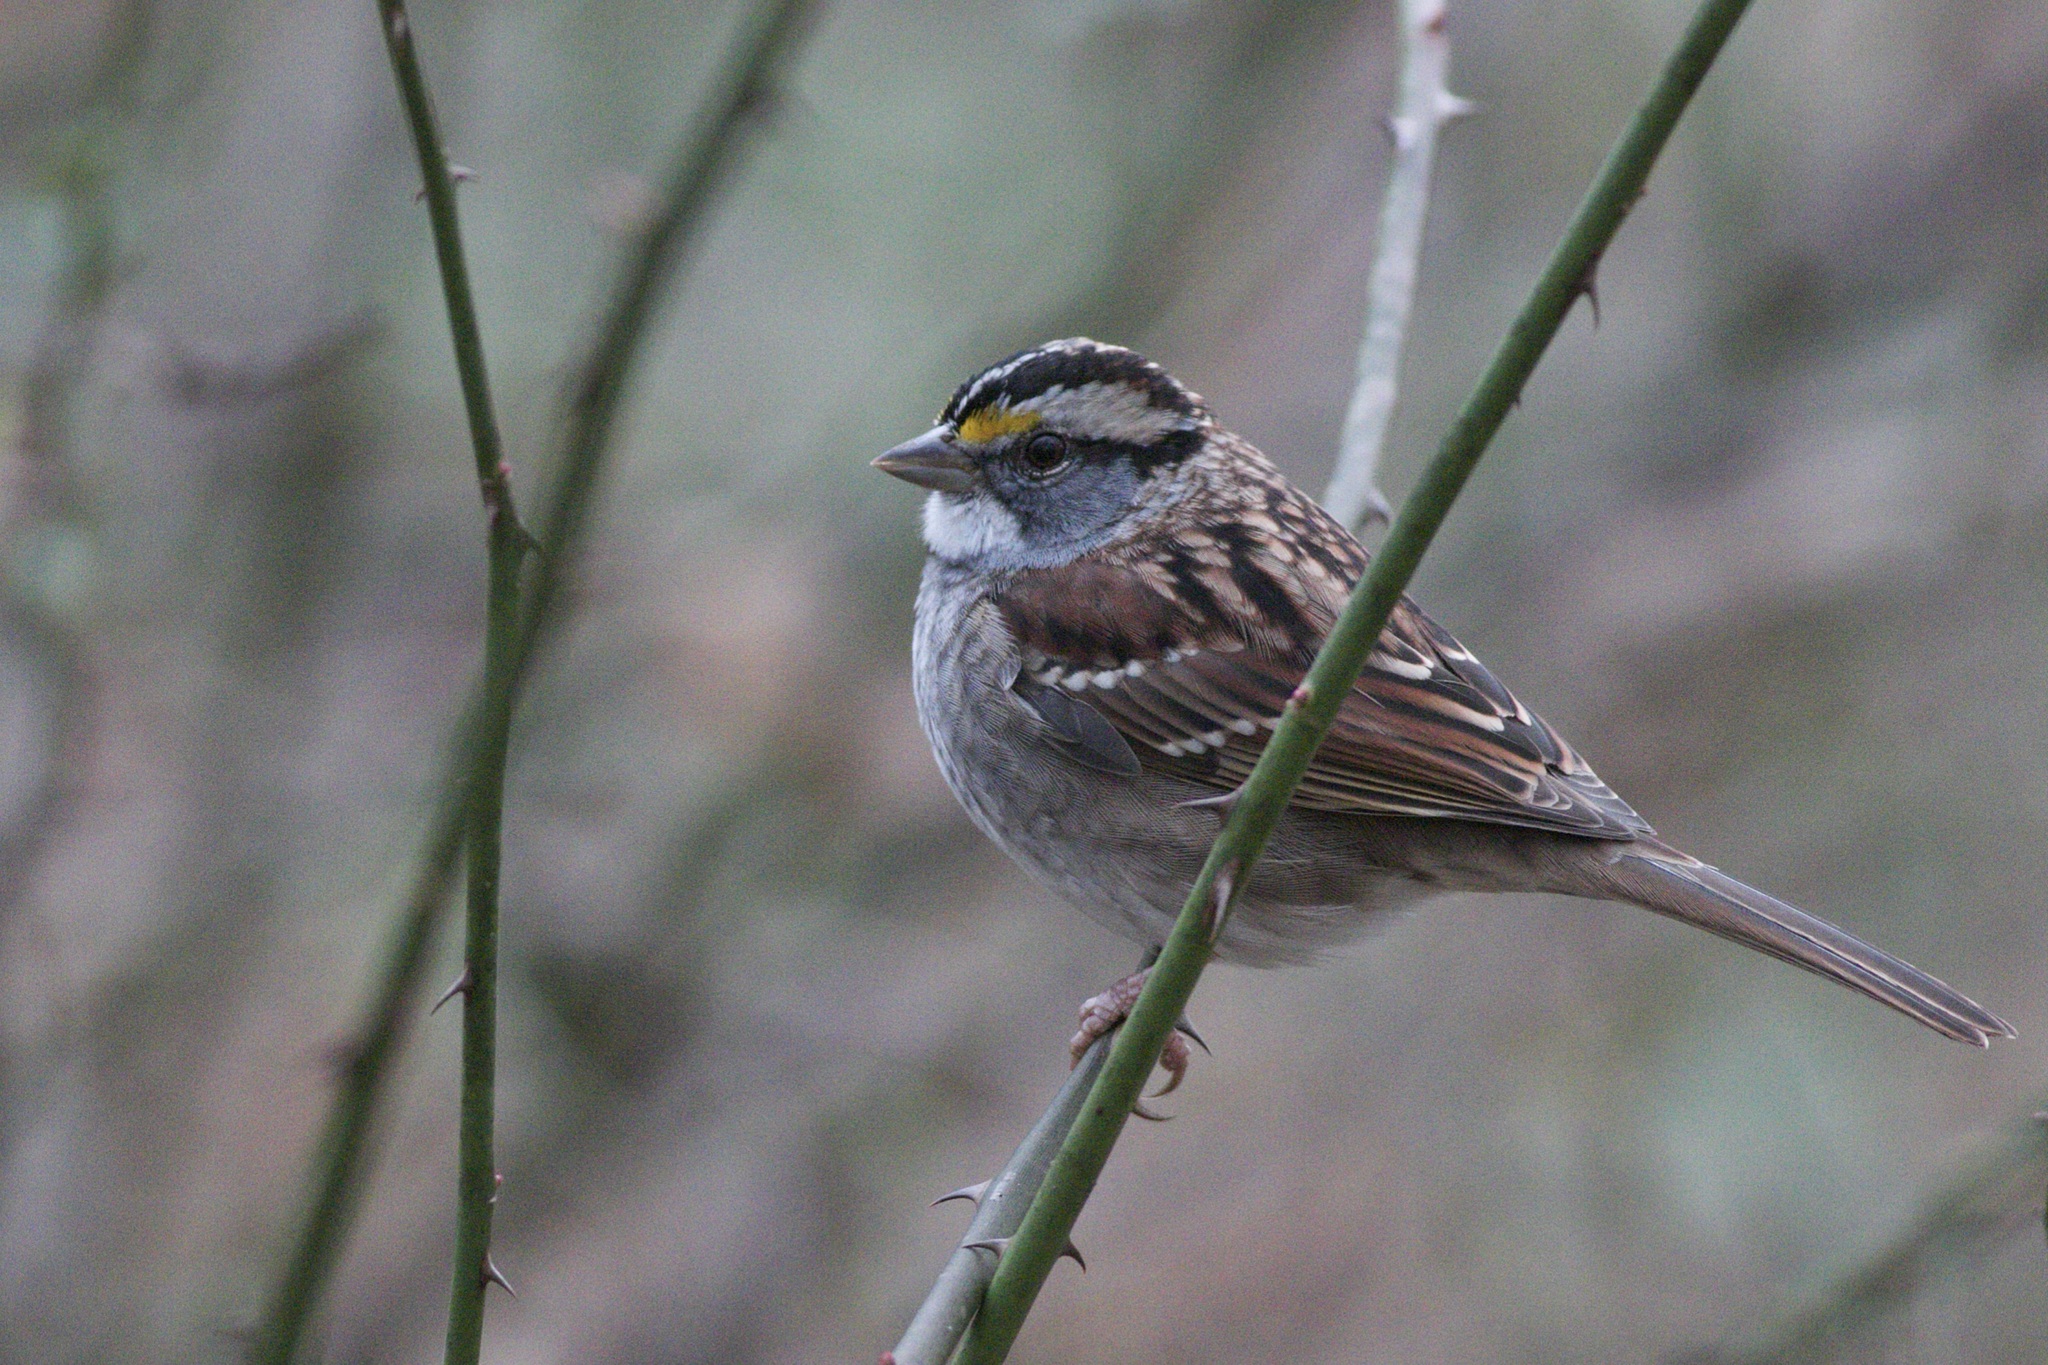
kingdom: Animalia
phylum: Chordata
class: Aves
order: Passeriformes
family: Passerellidae
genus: Zonotrichia
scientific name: Zonotrichia albicollis
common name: White-throated sparrow
